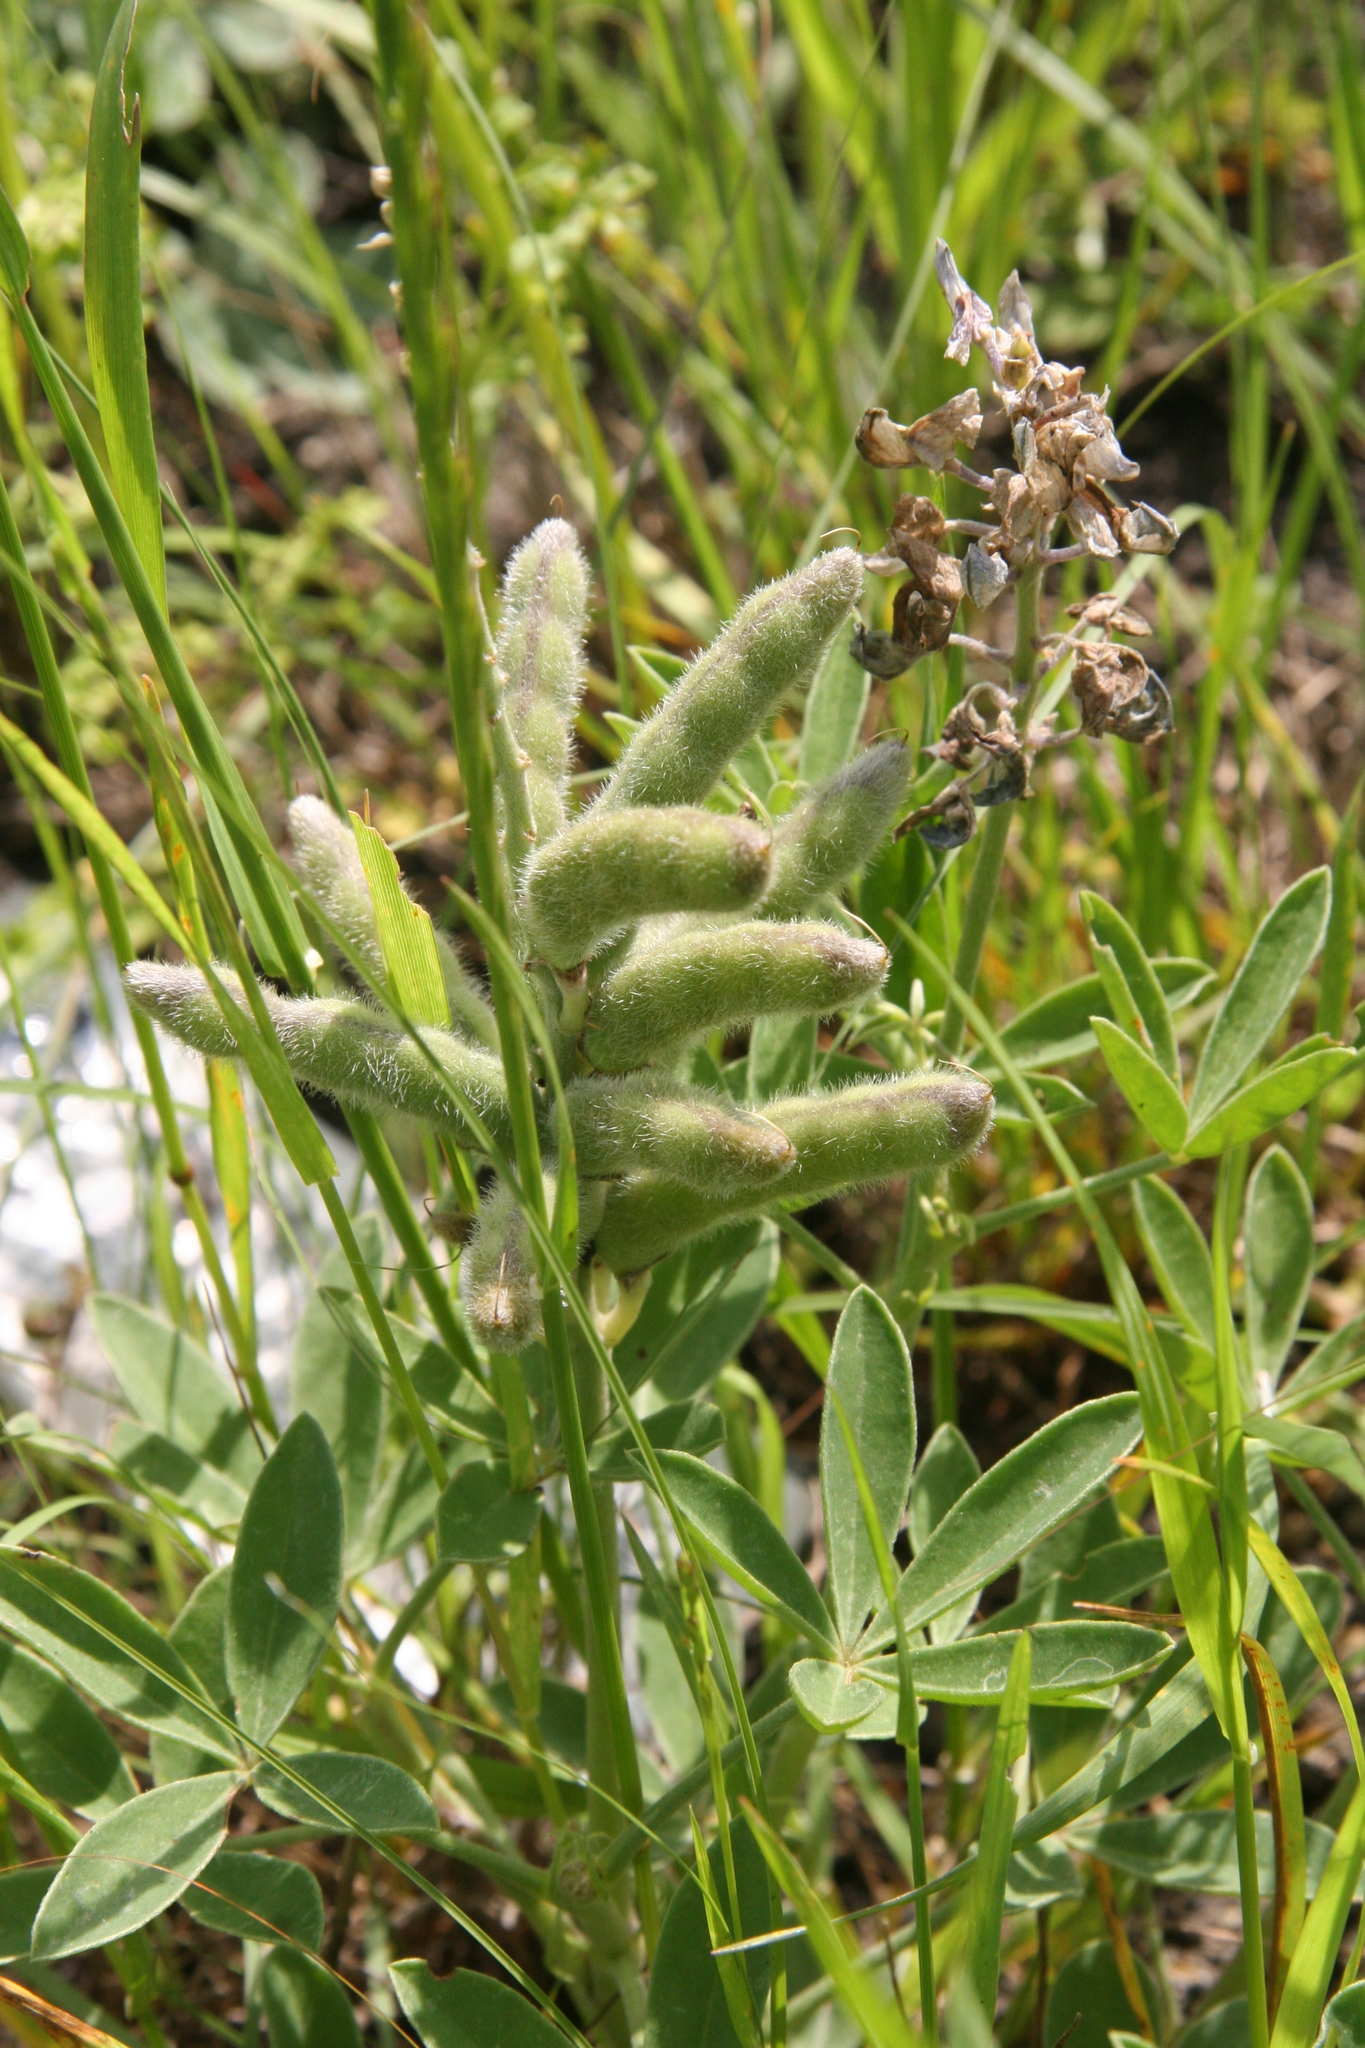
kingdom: Plantae
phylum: Tracheophyta
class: Magnoliopsida
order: Fabales
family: Fabaceae
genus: Lupinus
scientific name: Lupinus texensis
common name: Texas bluebonnet
